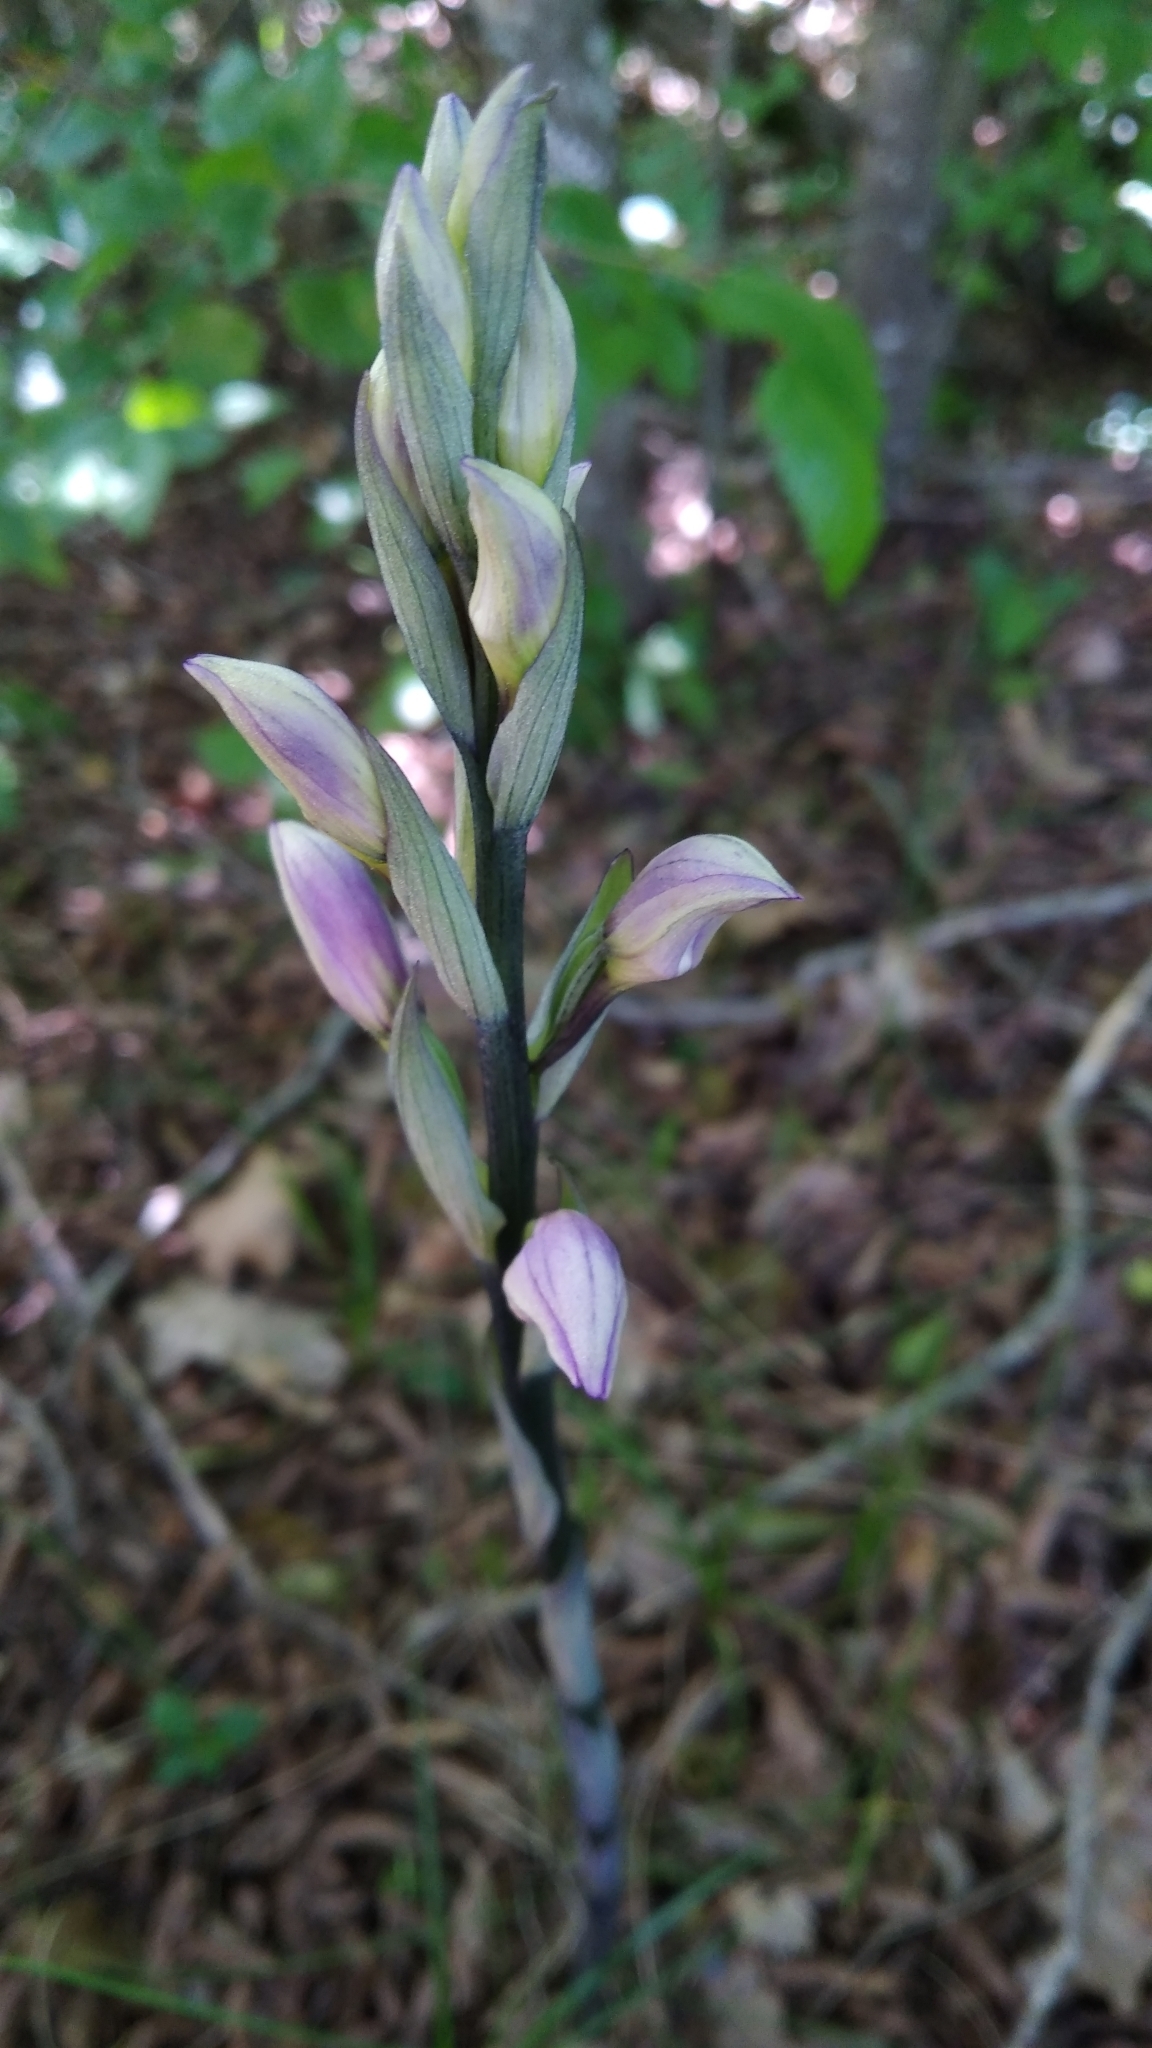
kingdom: Plantae
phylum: Tracheophyta
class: Liliopsida
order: Asparagales
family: Orchidaceae
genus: Limodorum
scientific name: Limodorum abortivum
